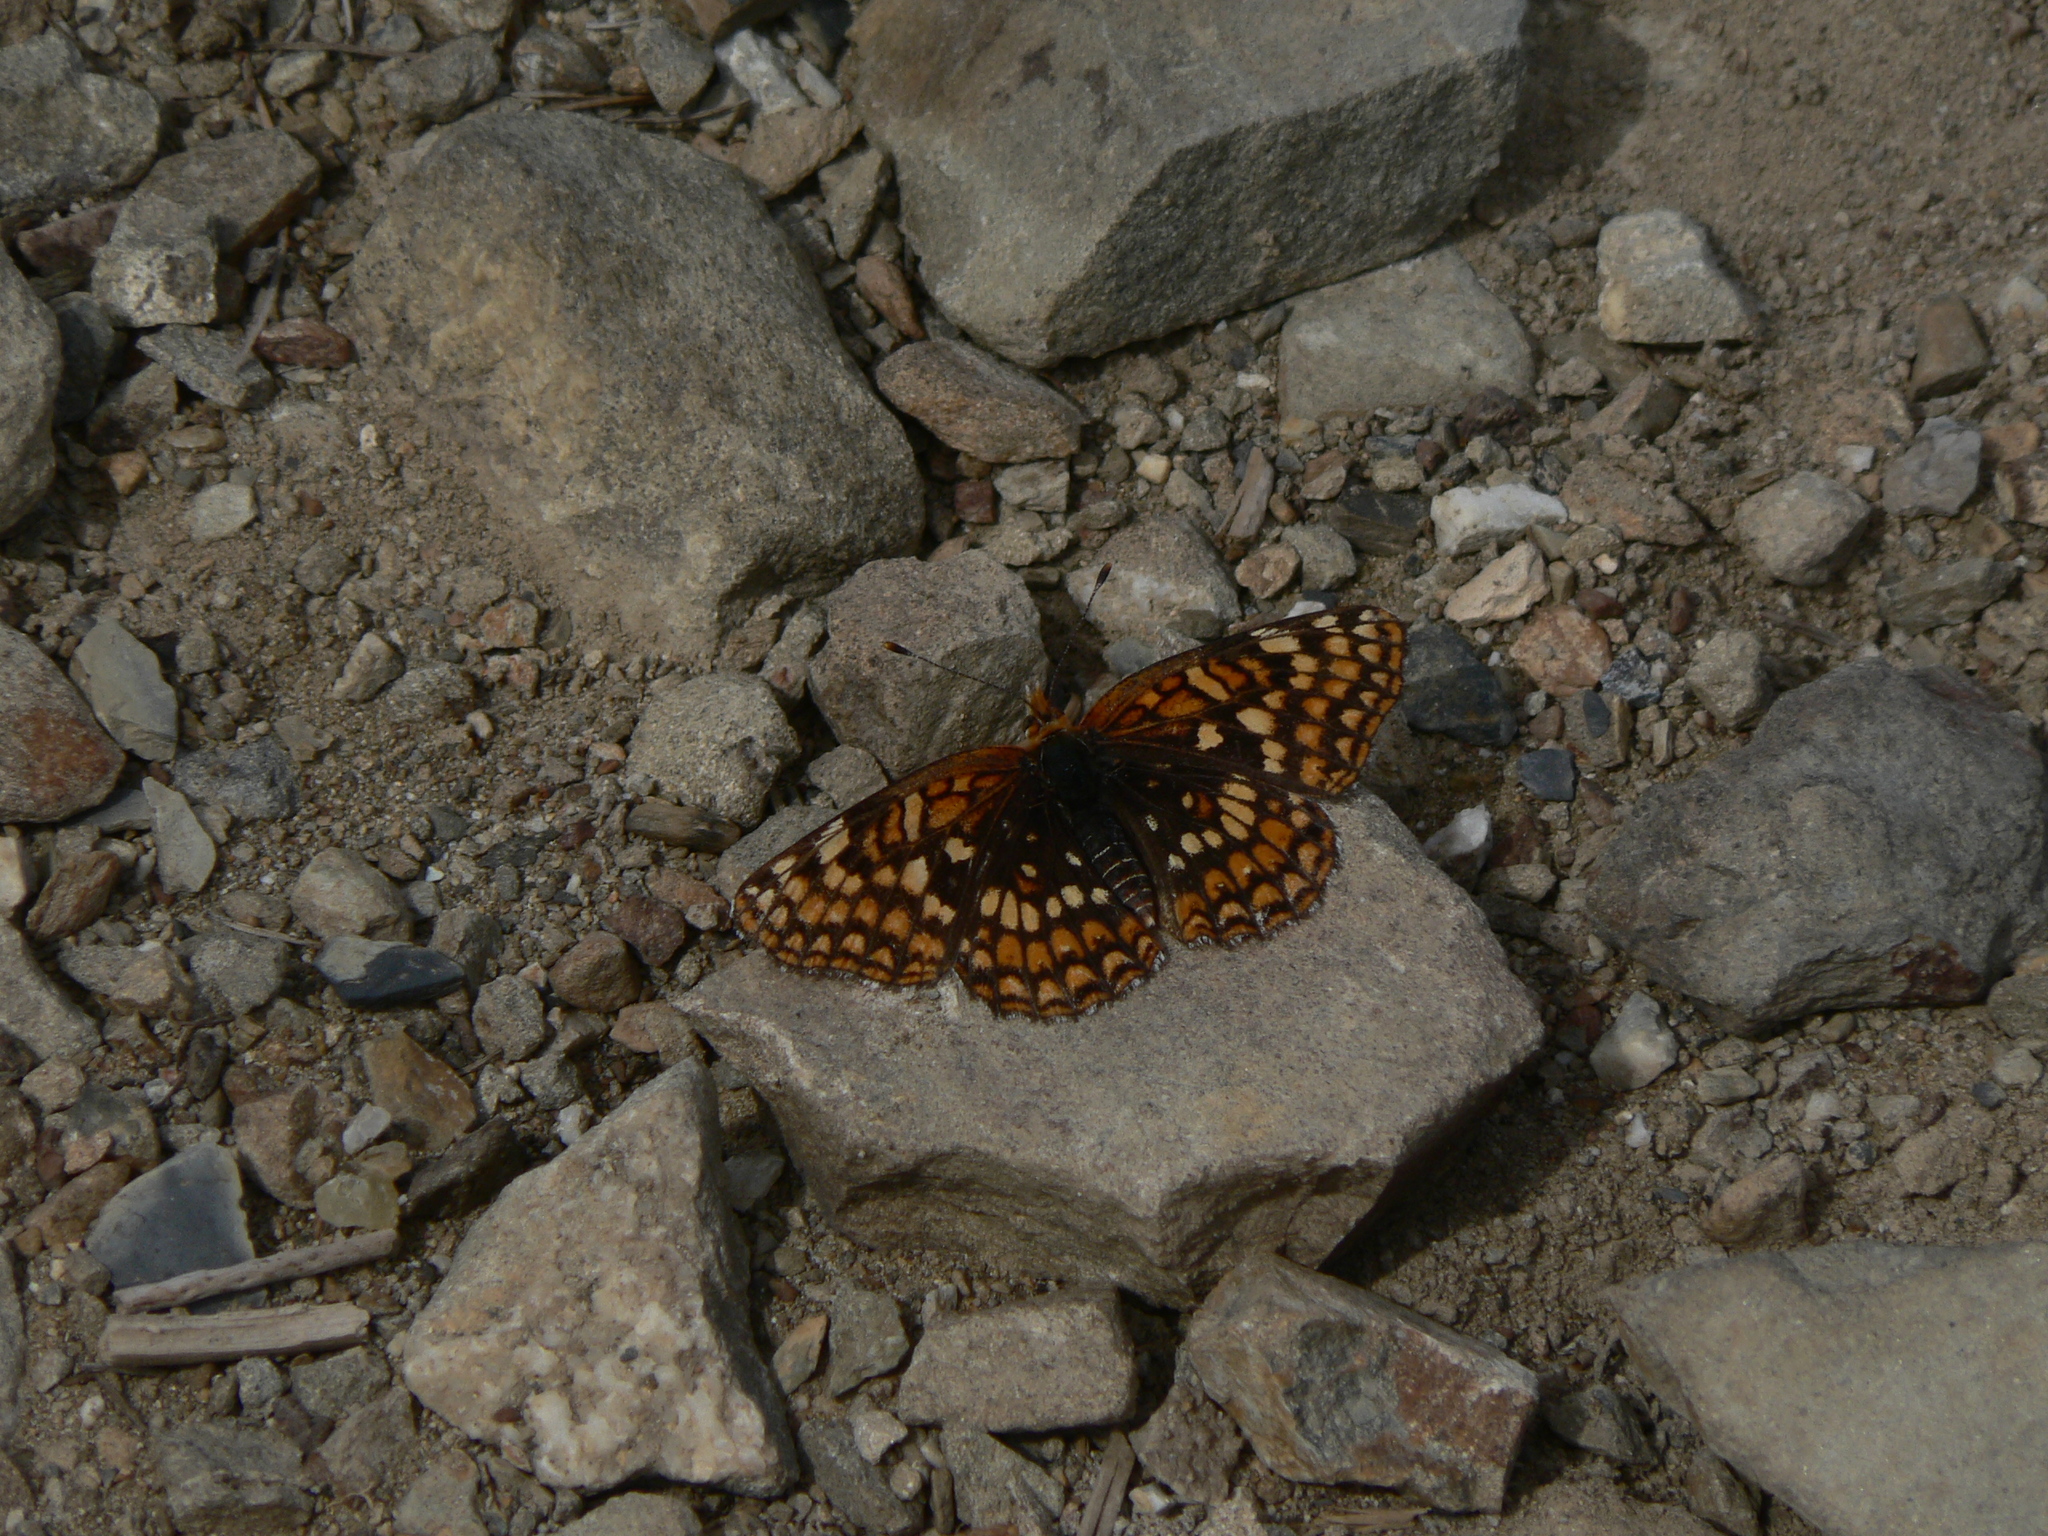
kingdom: Animalia
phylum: Arthropoda
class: Insecta
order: Lepidoptera
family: Nymphalidae
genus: Chlosyne
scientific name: Chlosyne palla
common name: Northern checkerspot
